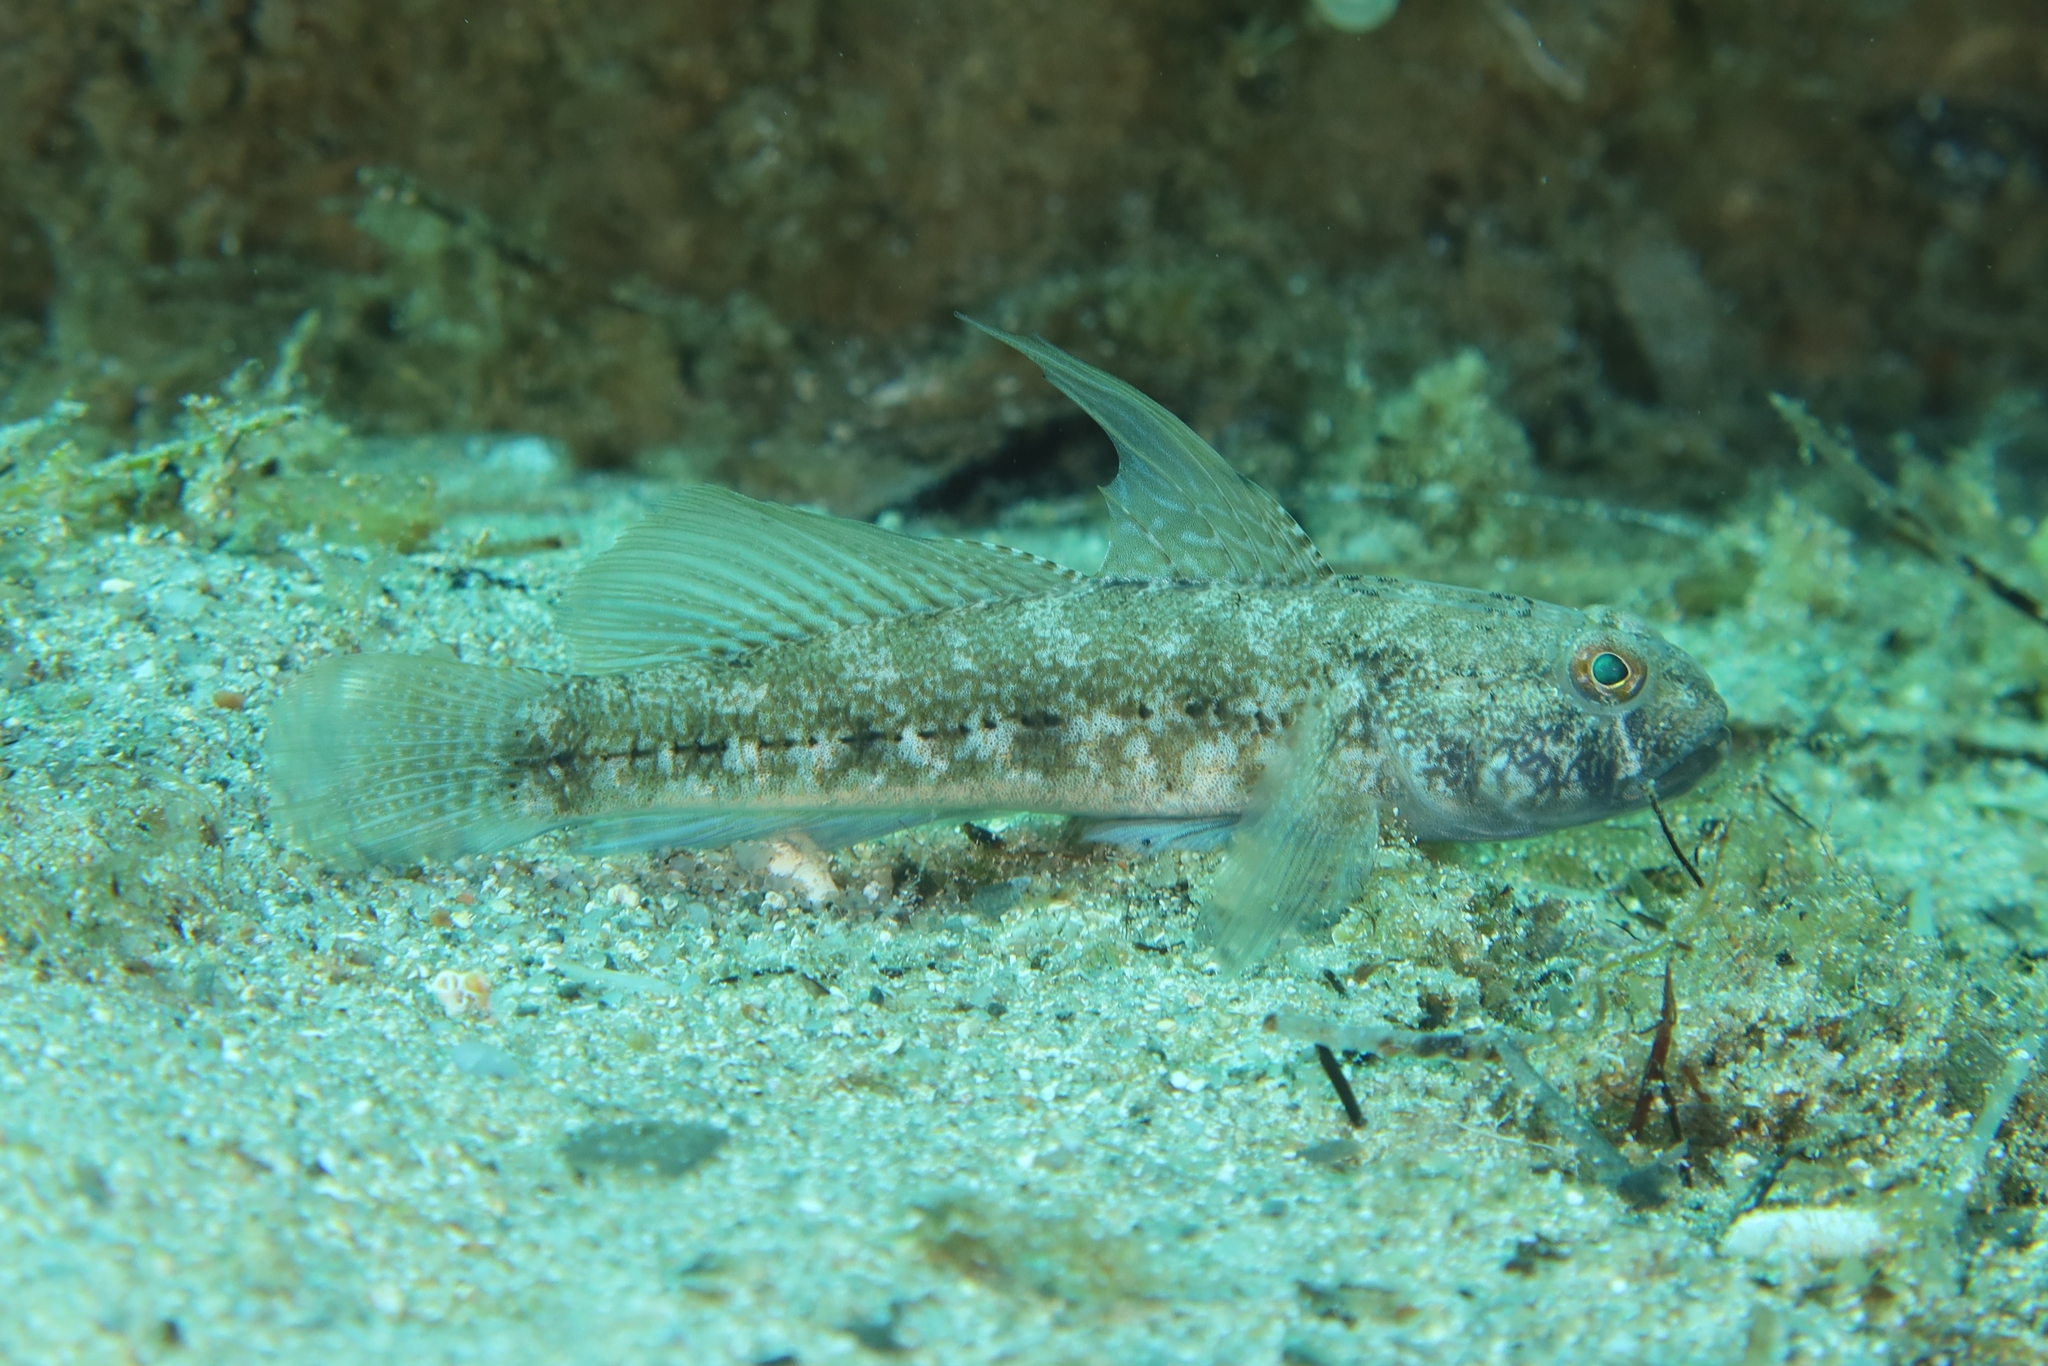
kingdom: Animalia
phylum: Chordata
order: Perciformes
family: Gobiidae
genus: Gobius
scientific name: Gobius niger
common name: Black goby
